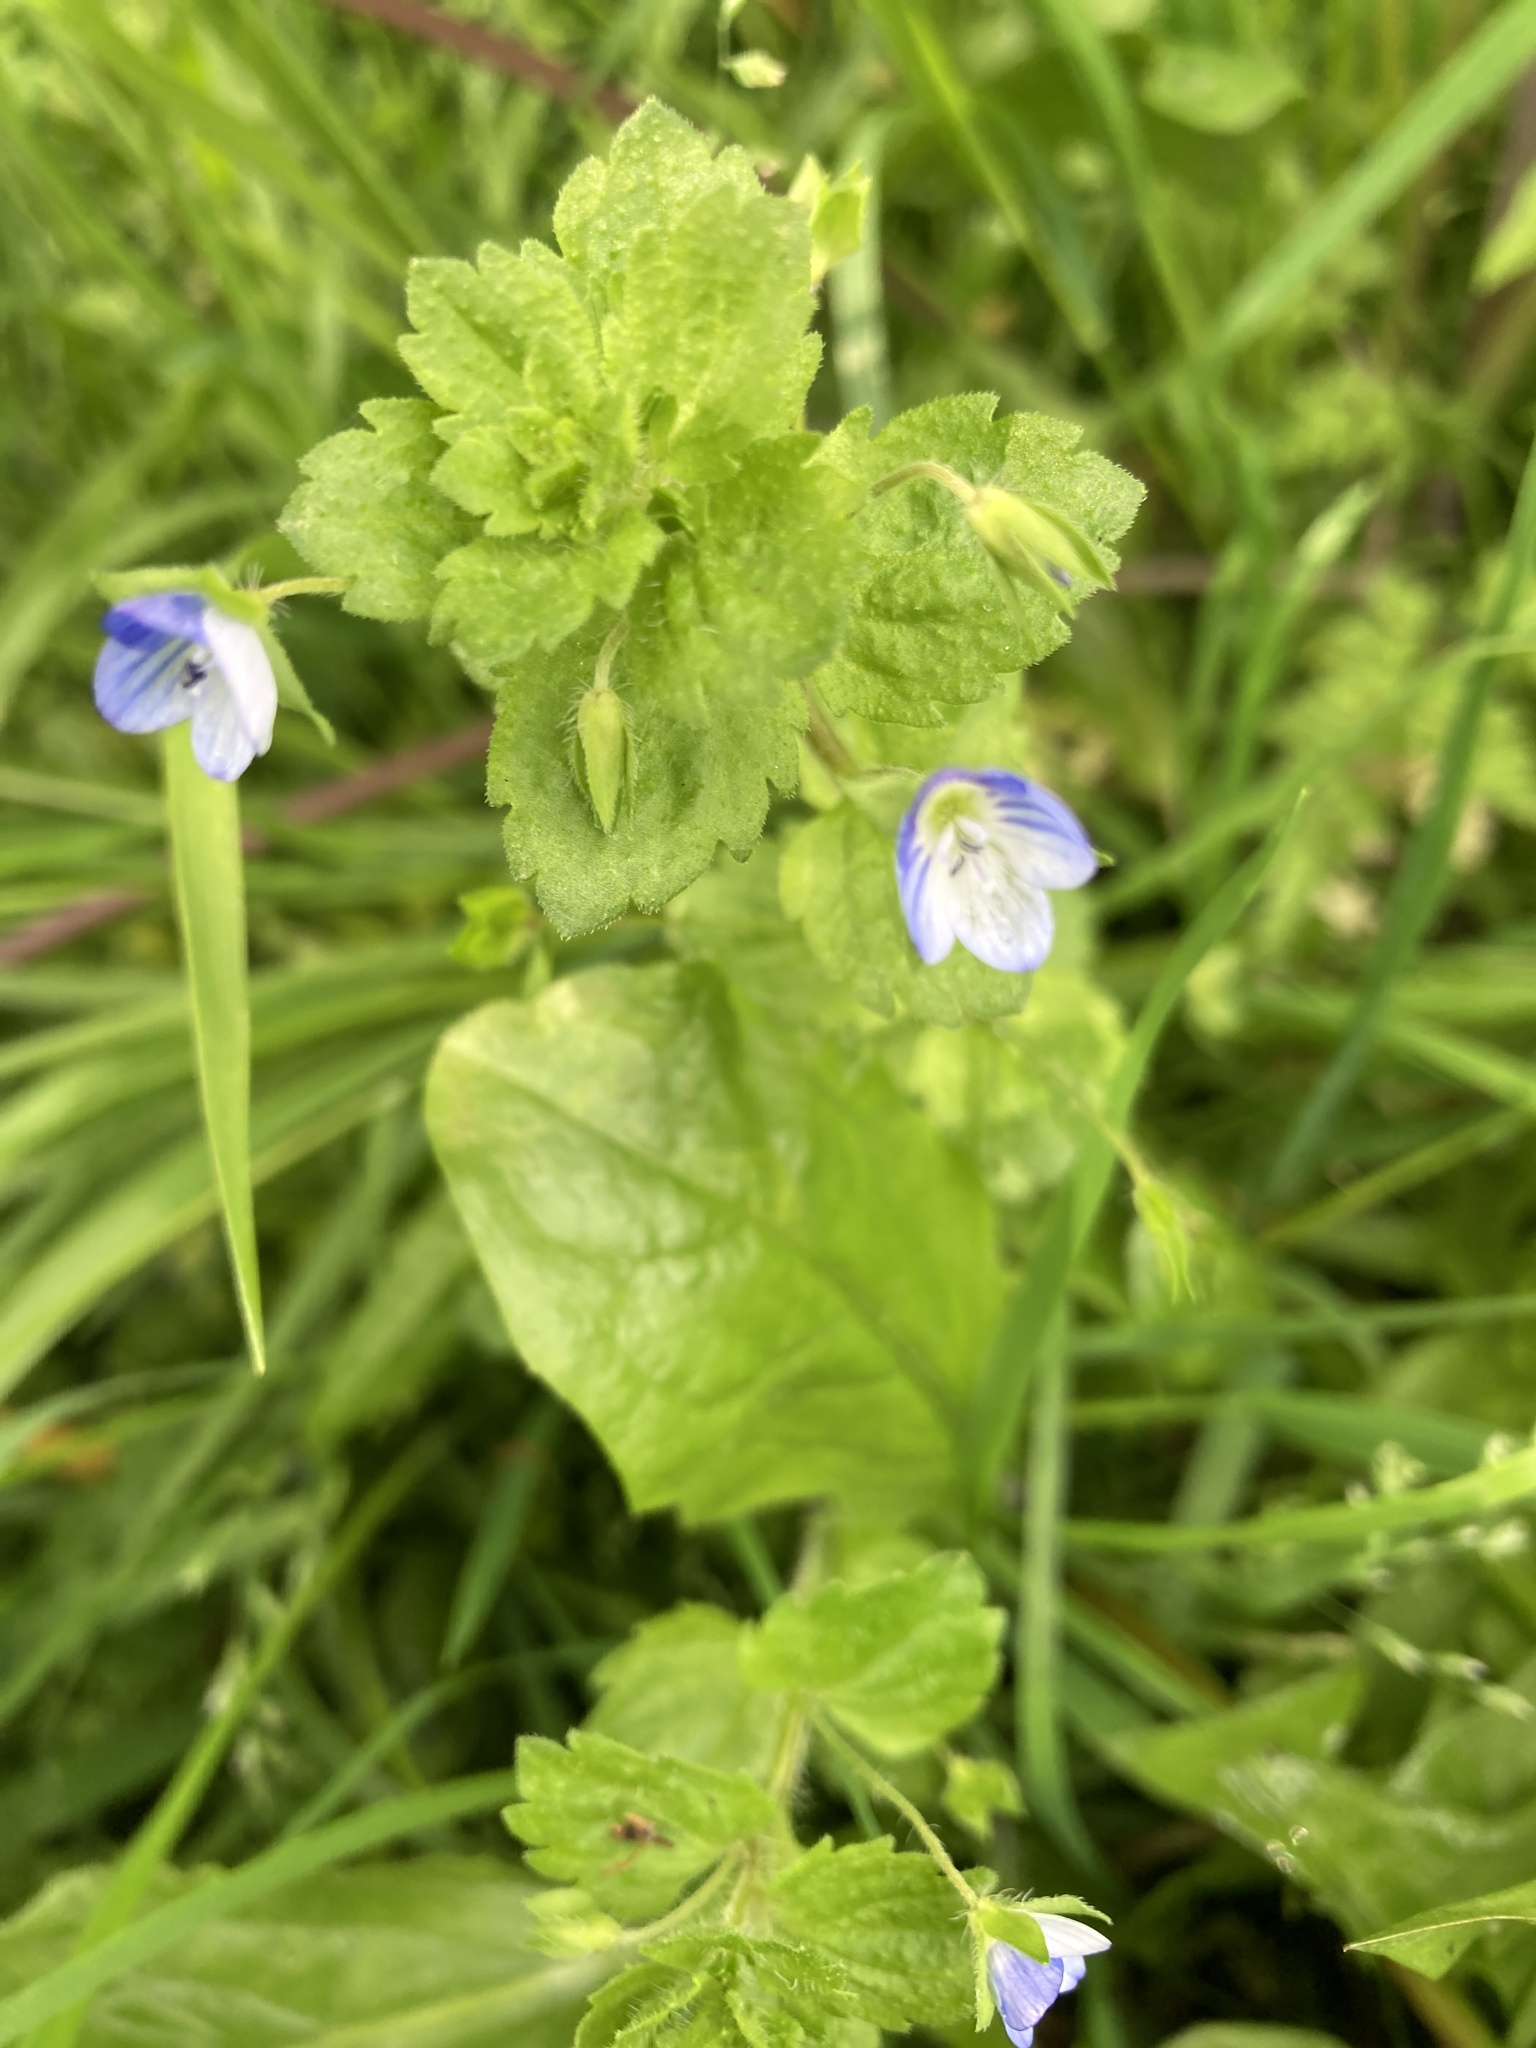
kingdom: Plantae
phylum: Tracheophyta
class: Magnoliopsida
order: Lamiales
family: Plantaginaceae
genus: Veronica
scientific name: Veronica persica
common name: Common field-speedwell
